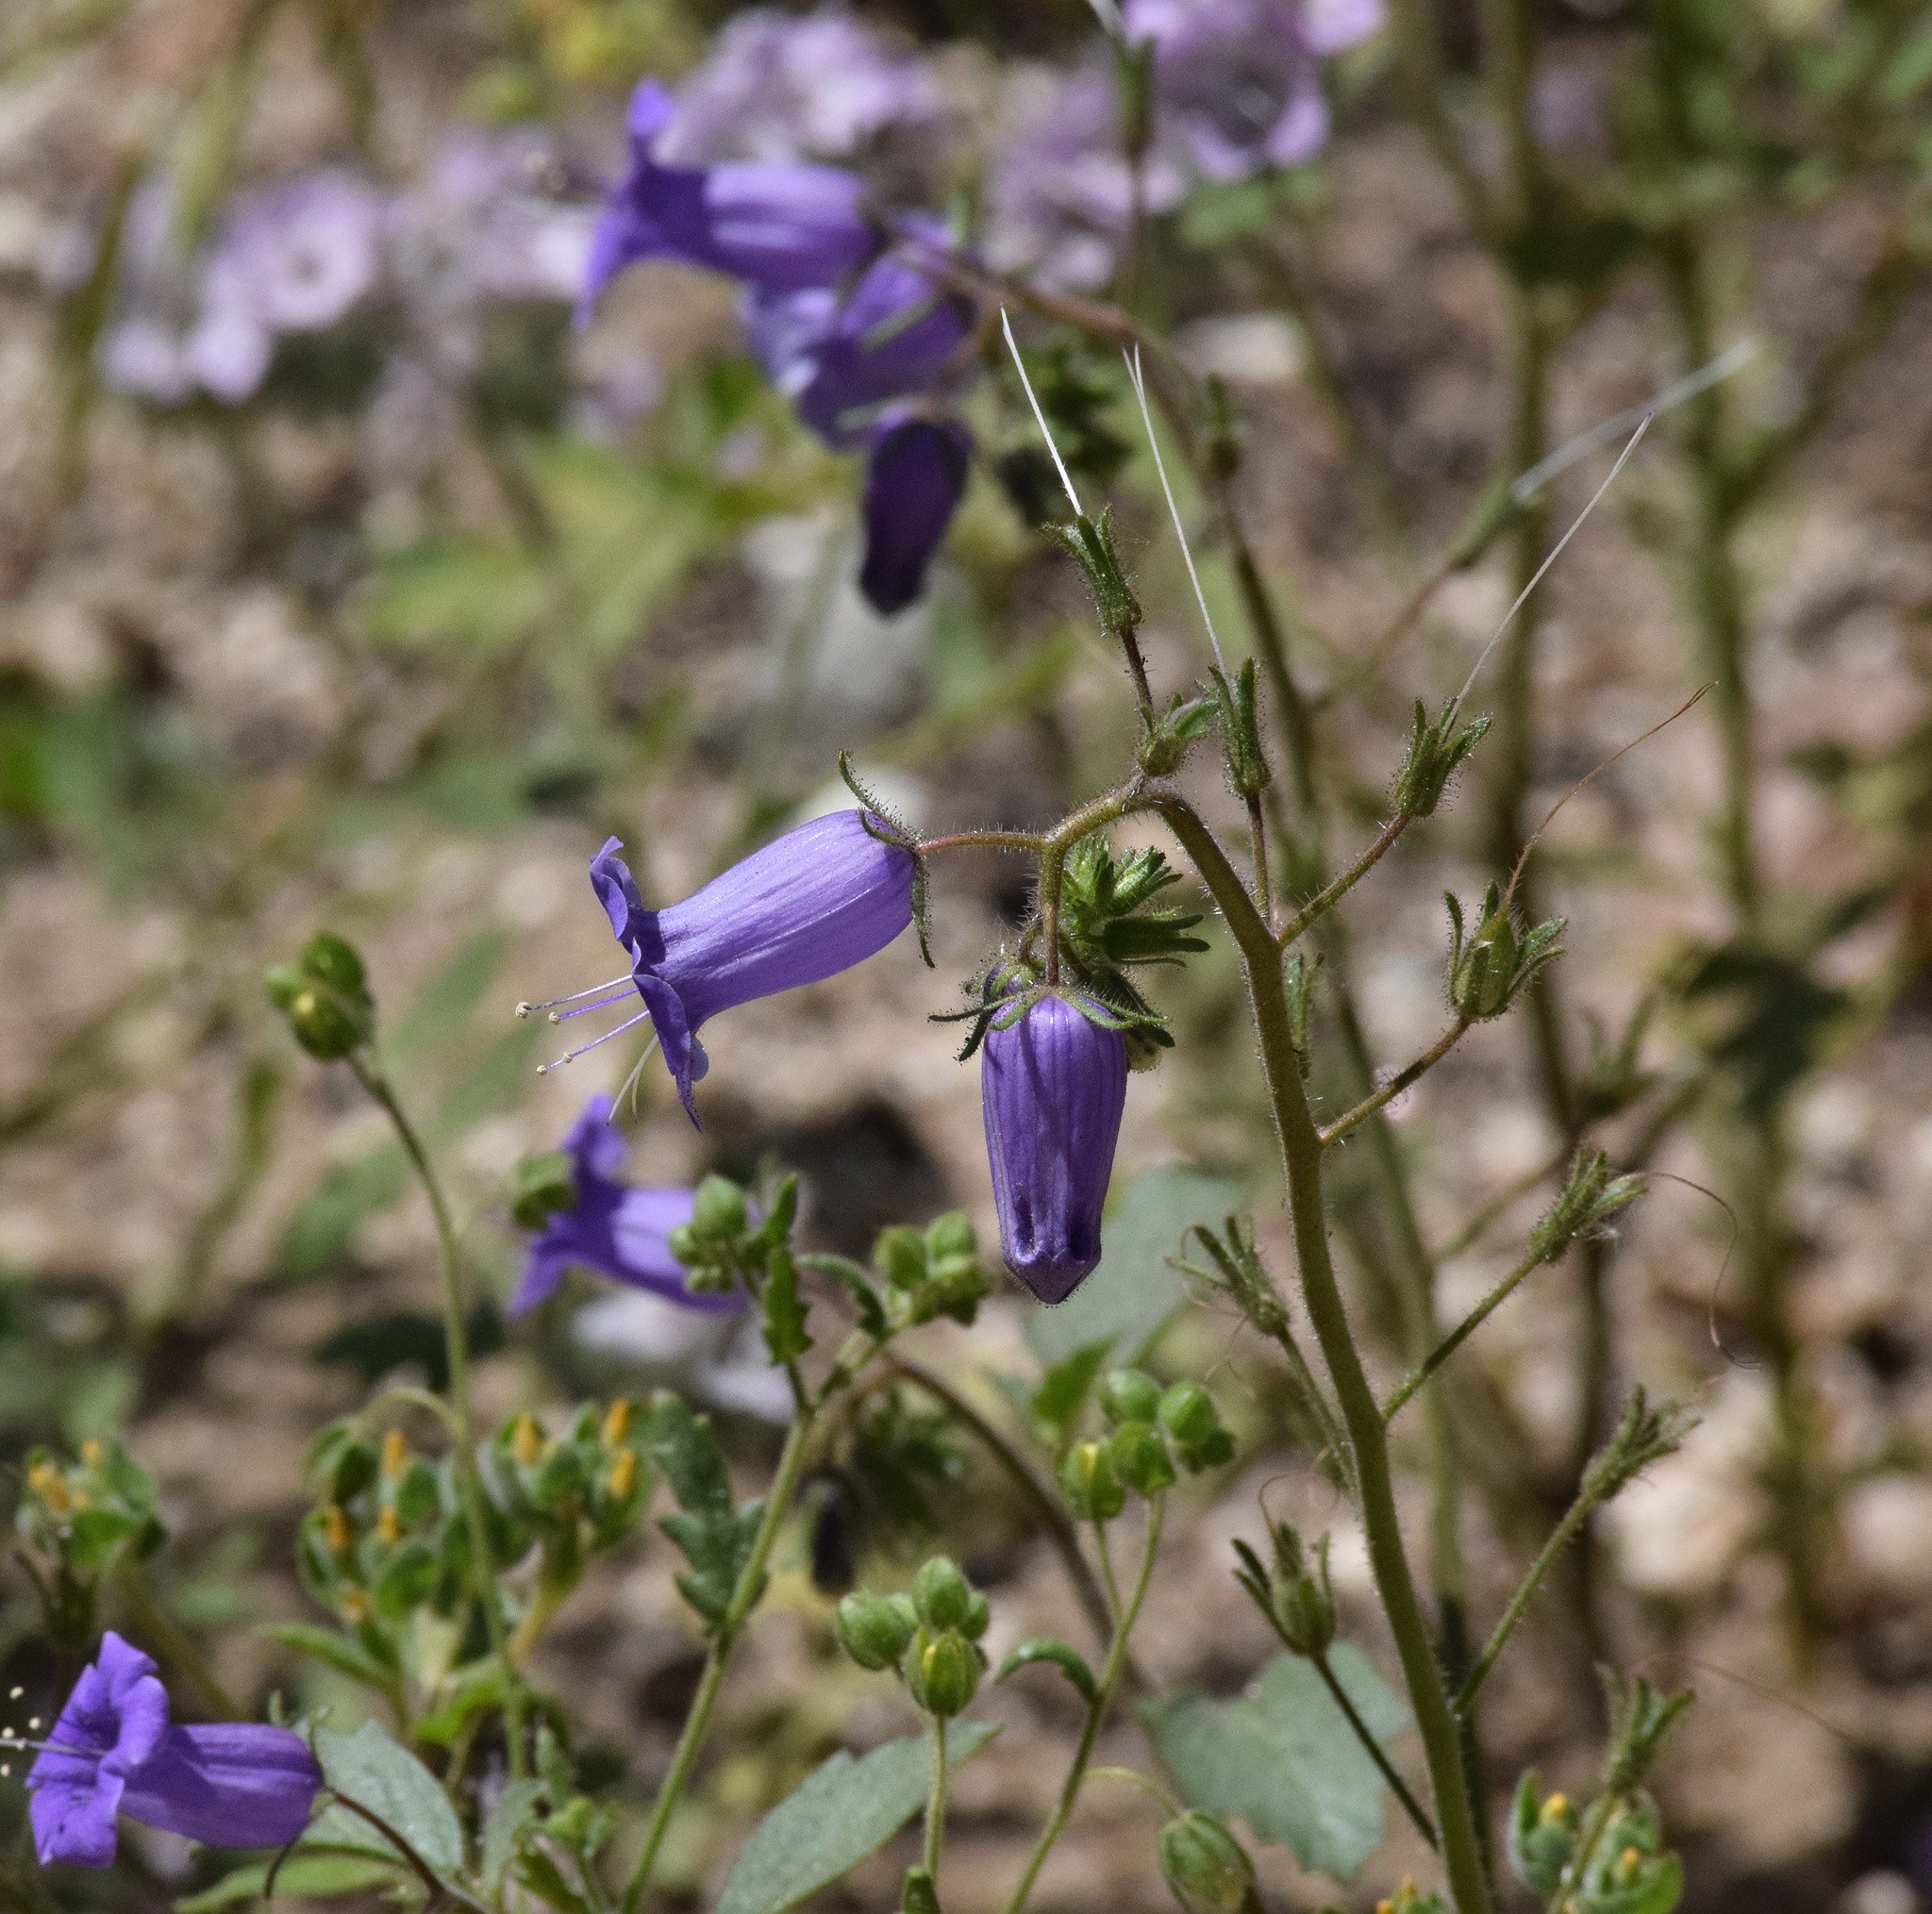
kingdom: Plantae
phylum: Tracheophyta
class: Magnoliopsida
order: Boraginales
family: Hydrophyllaceae
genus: Phacelia
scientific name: Phacelia minor
